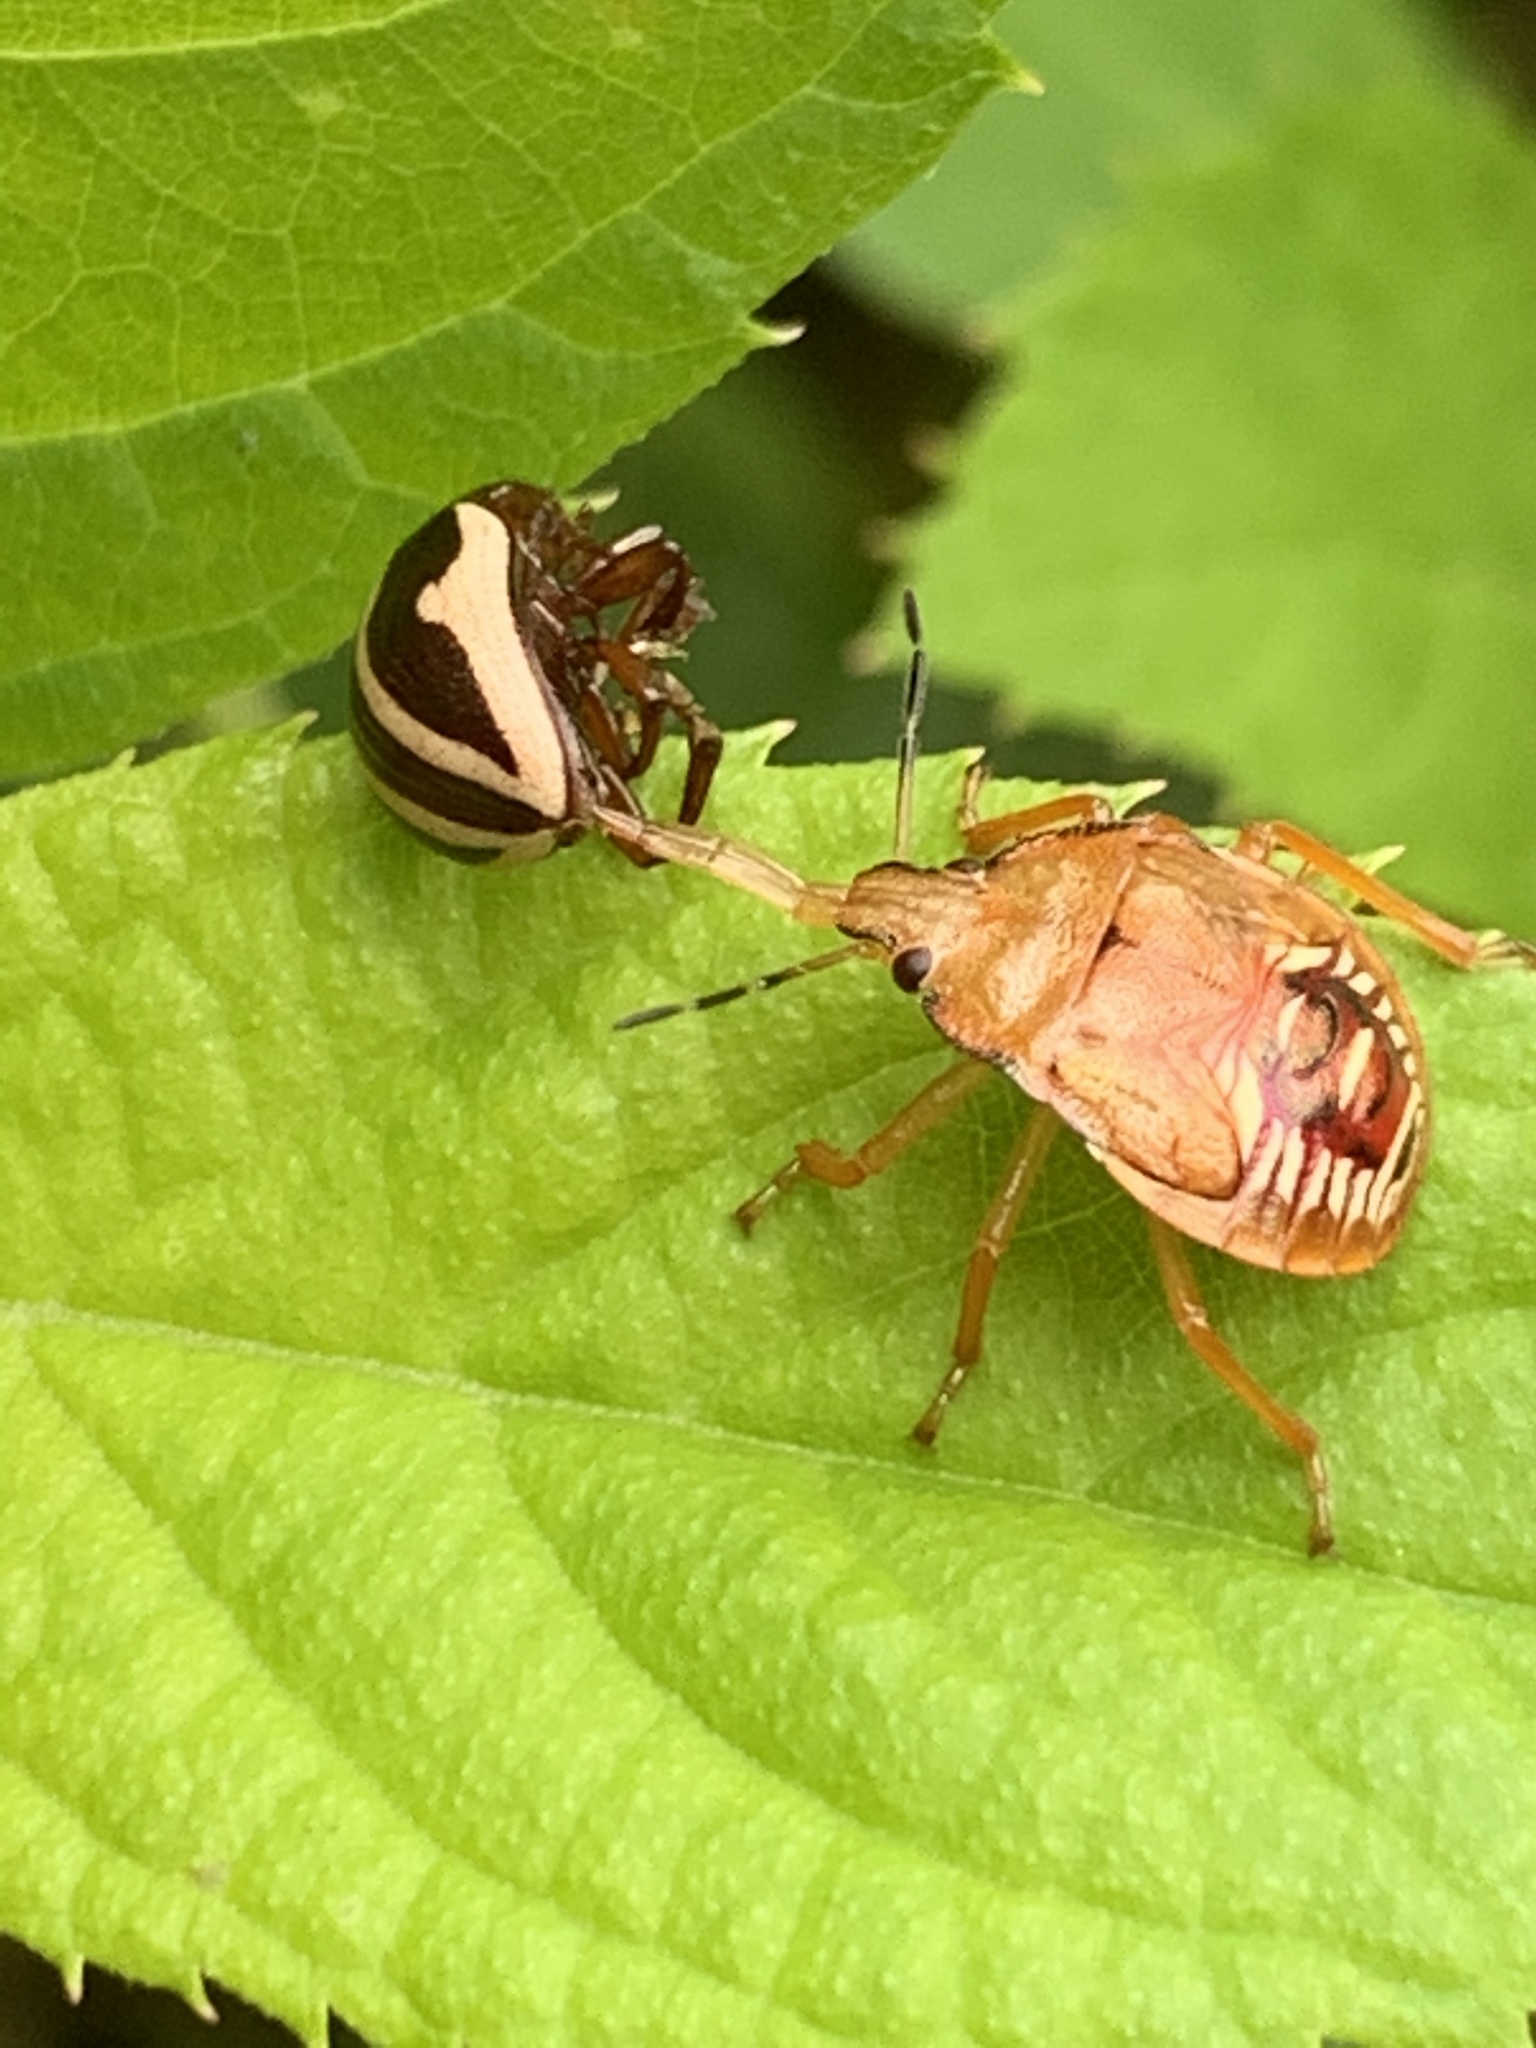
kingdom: Animalia
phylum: Arthropoda
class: Insecta
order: Hemiptera
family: Pentatomidae
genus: Podisus
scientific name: Podisus maculiventris
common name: Spined soldier bug
